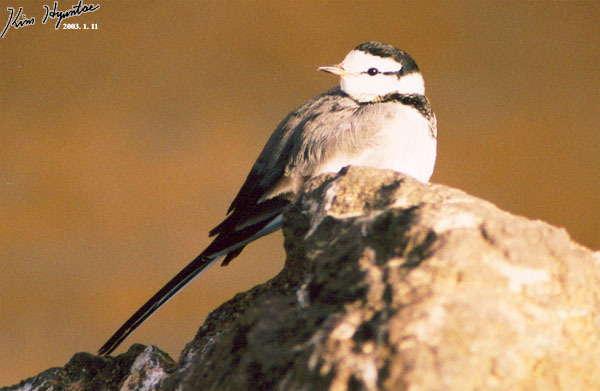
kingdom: Animalia
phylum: Chordata
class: Aves
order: Passeriformes
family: Motacillidae
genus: Motacilla
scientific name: Motacilla alba
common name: White wagtail
